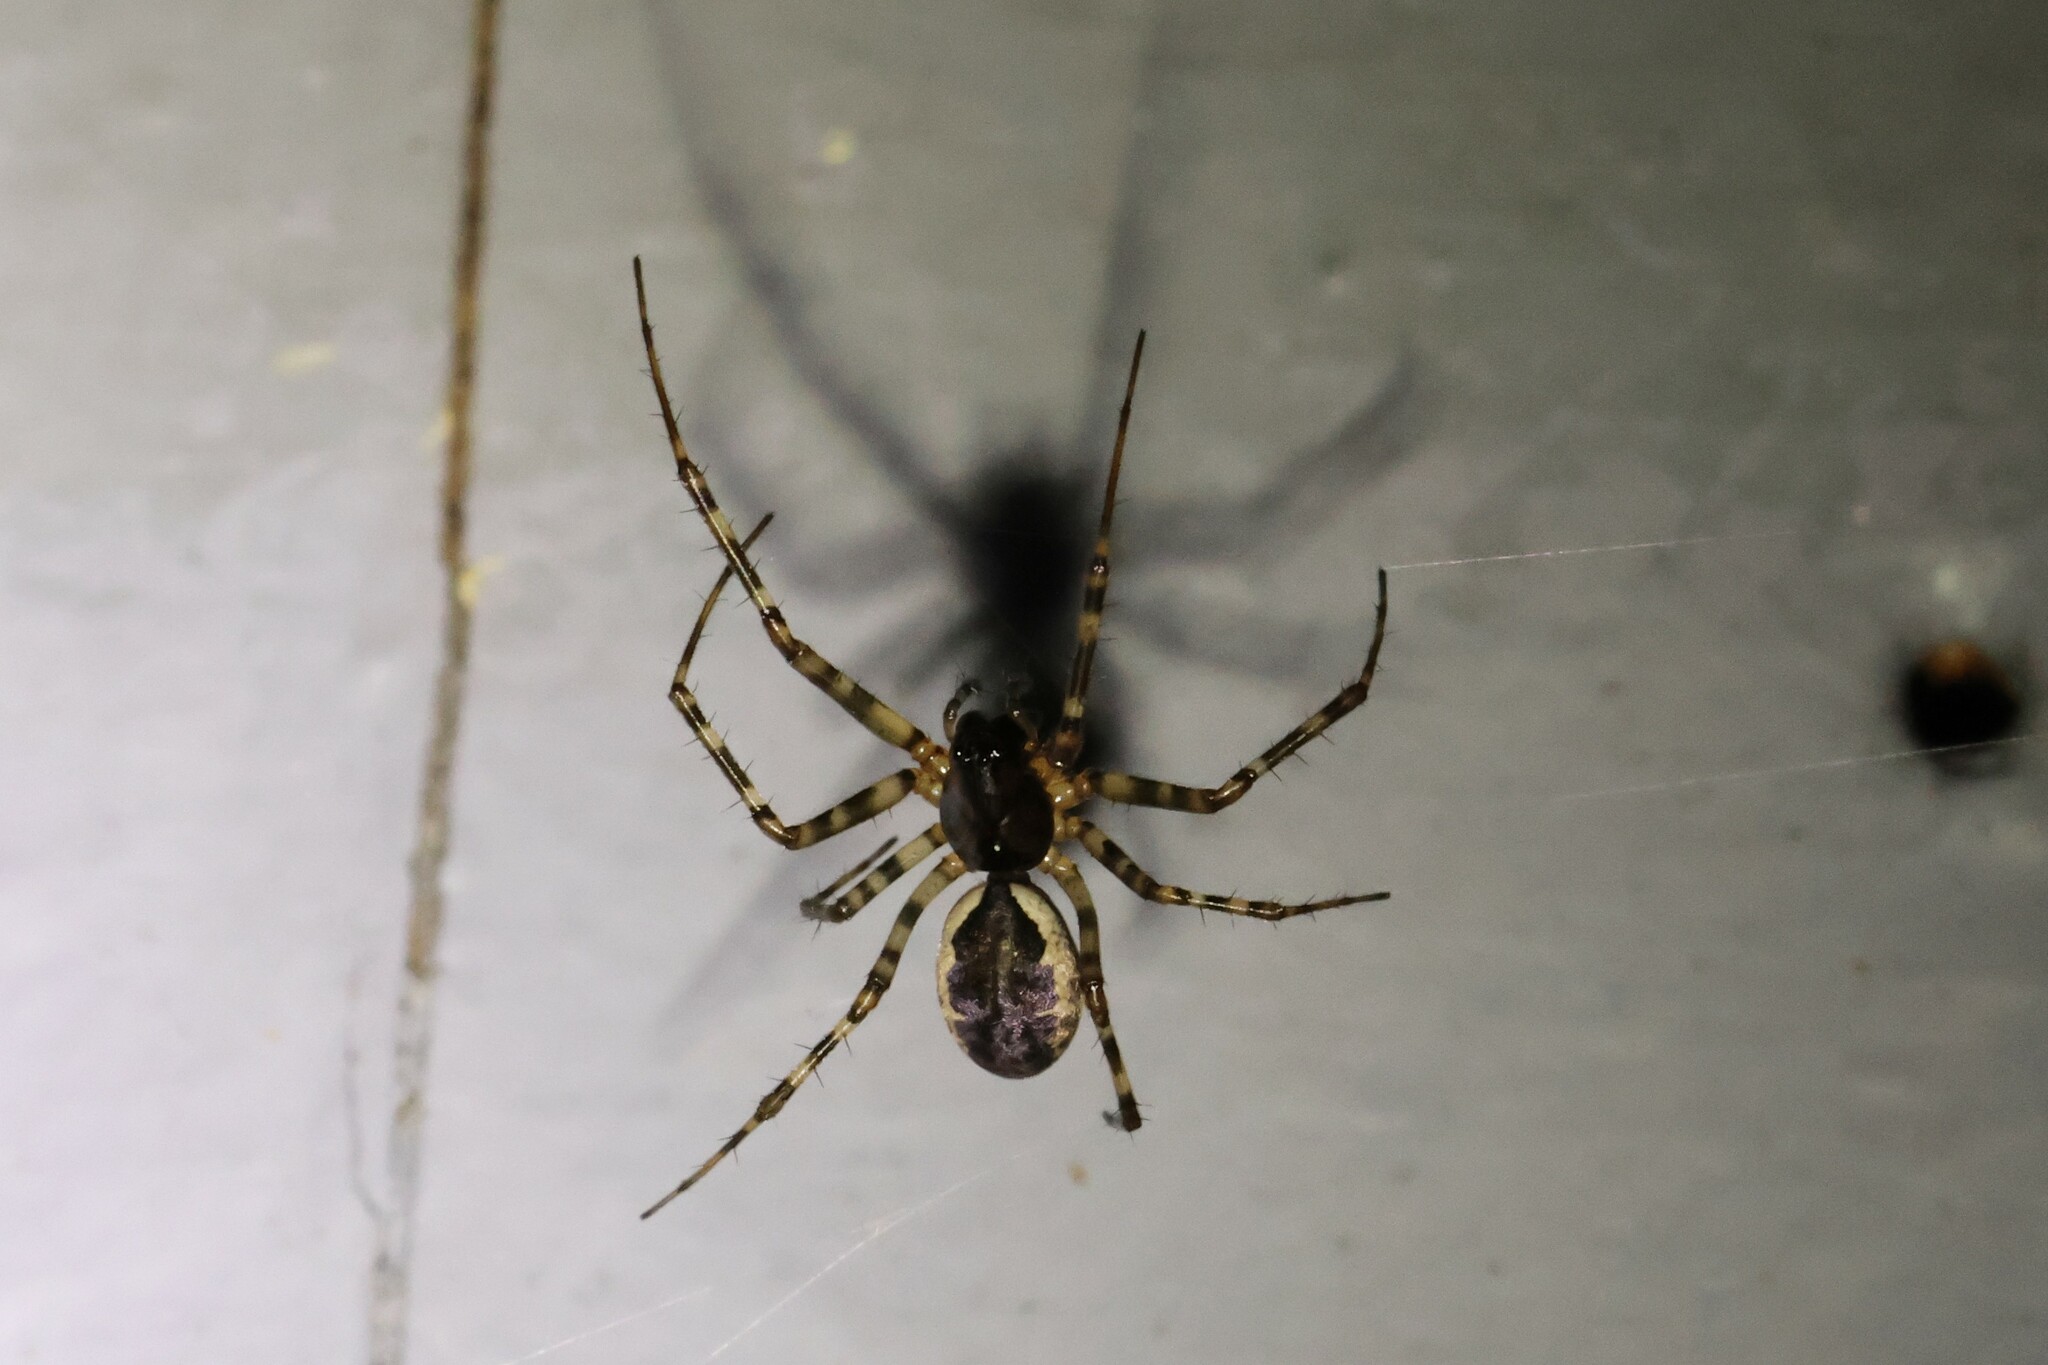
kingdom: Animalia
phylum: Arthropoda
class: Arachnida
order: Araneae
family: Linyphiidae
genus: Neriene
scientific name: Neriene montana
